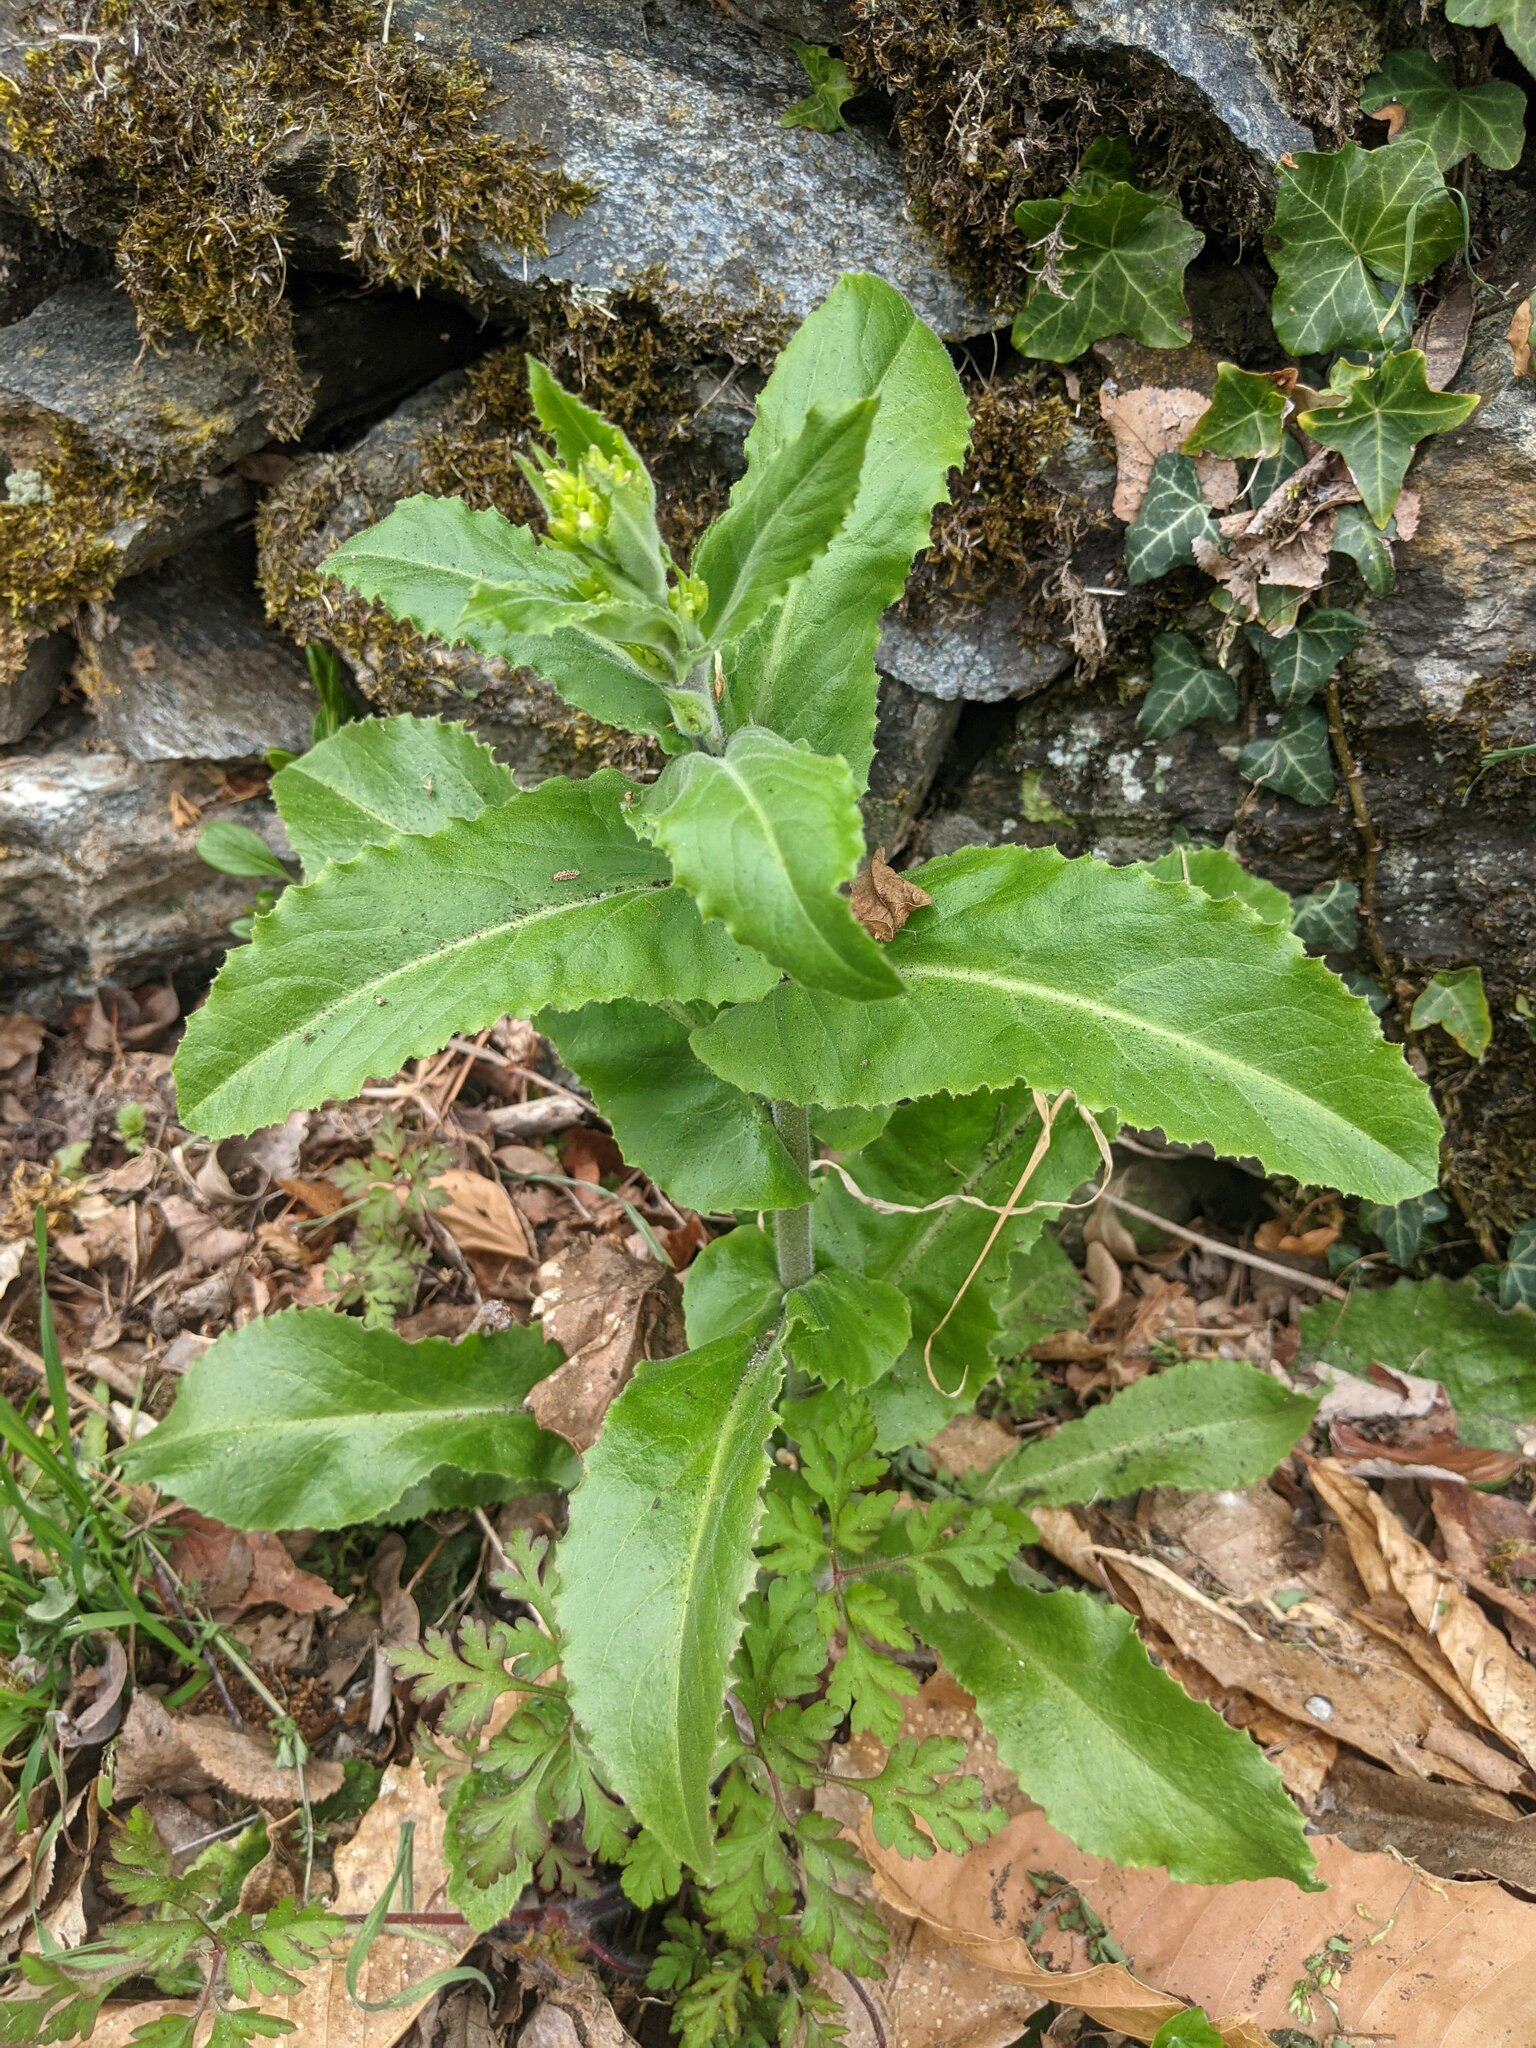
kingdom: Plantae
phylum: Tracheophyta
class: Magnoliopsida
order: Brassicales
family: Brassicaceae
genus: Pseudoturritis
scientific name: Pseudoturritis turrita
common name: Tower cress
